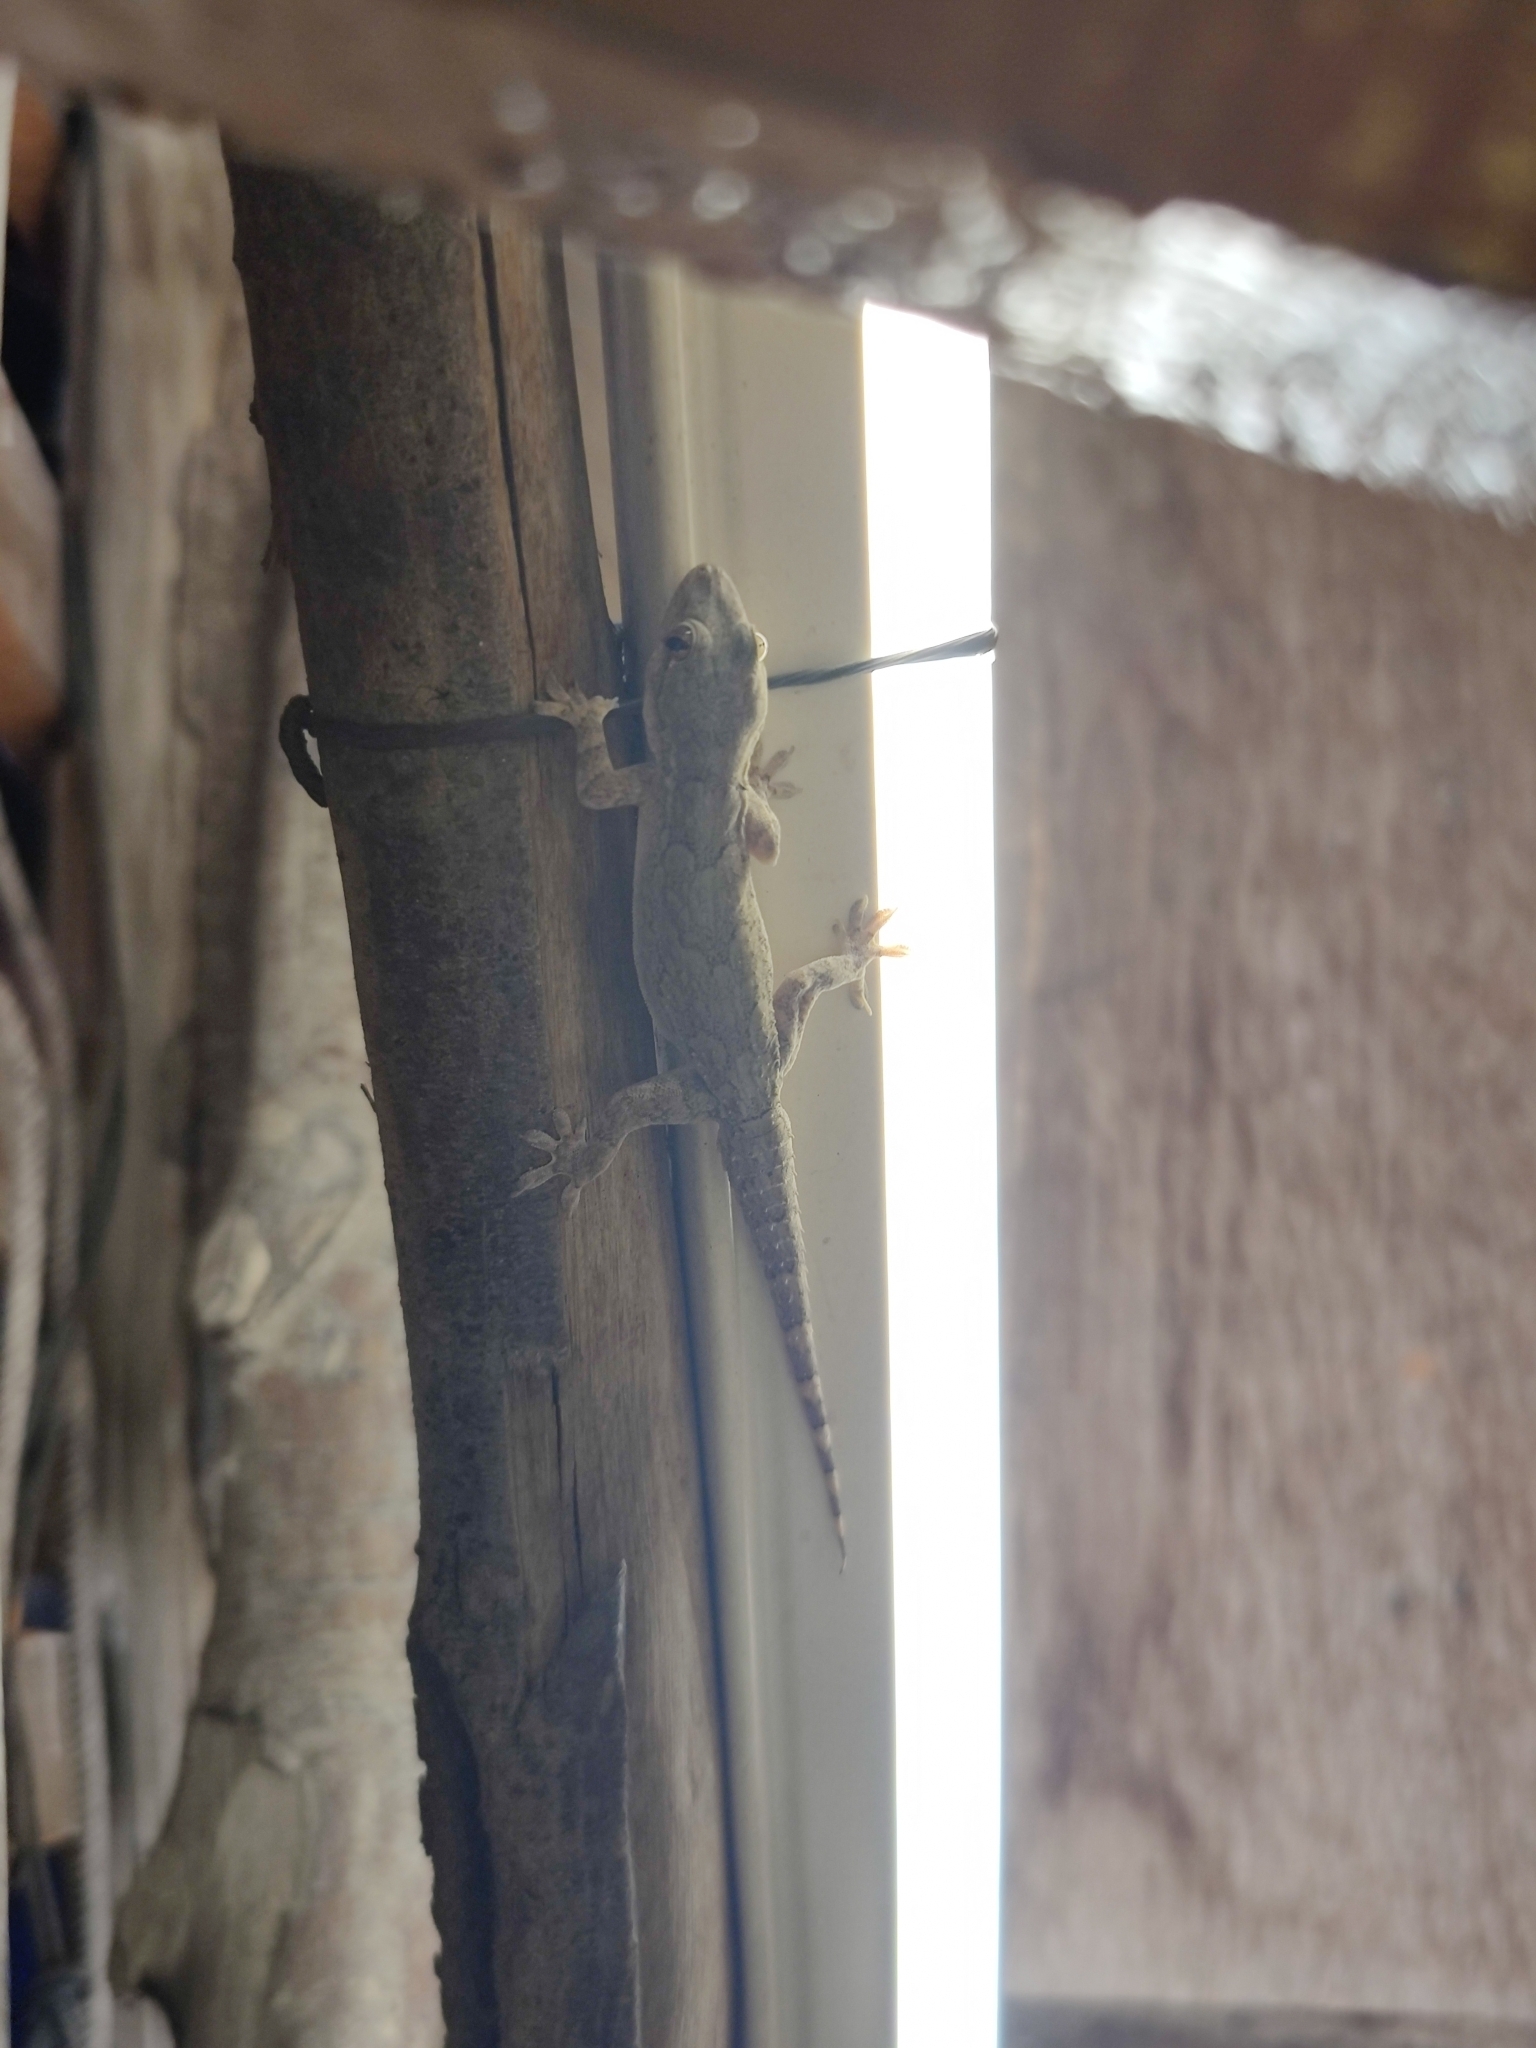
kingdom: Animalia
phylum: Chordata
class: Squamata
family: Gekkonidae
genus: Hemidactylus
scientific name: Hemidactylus frenatus
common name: Common house gecko
